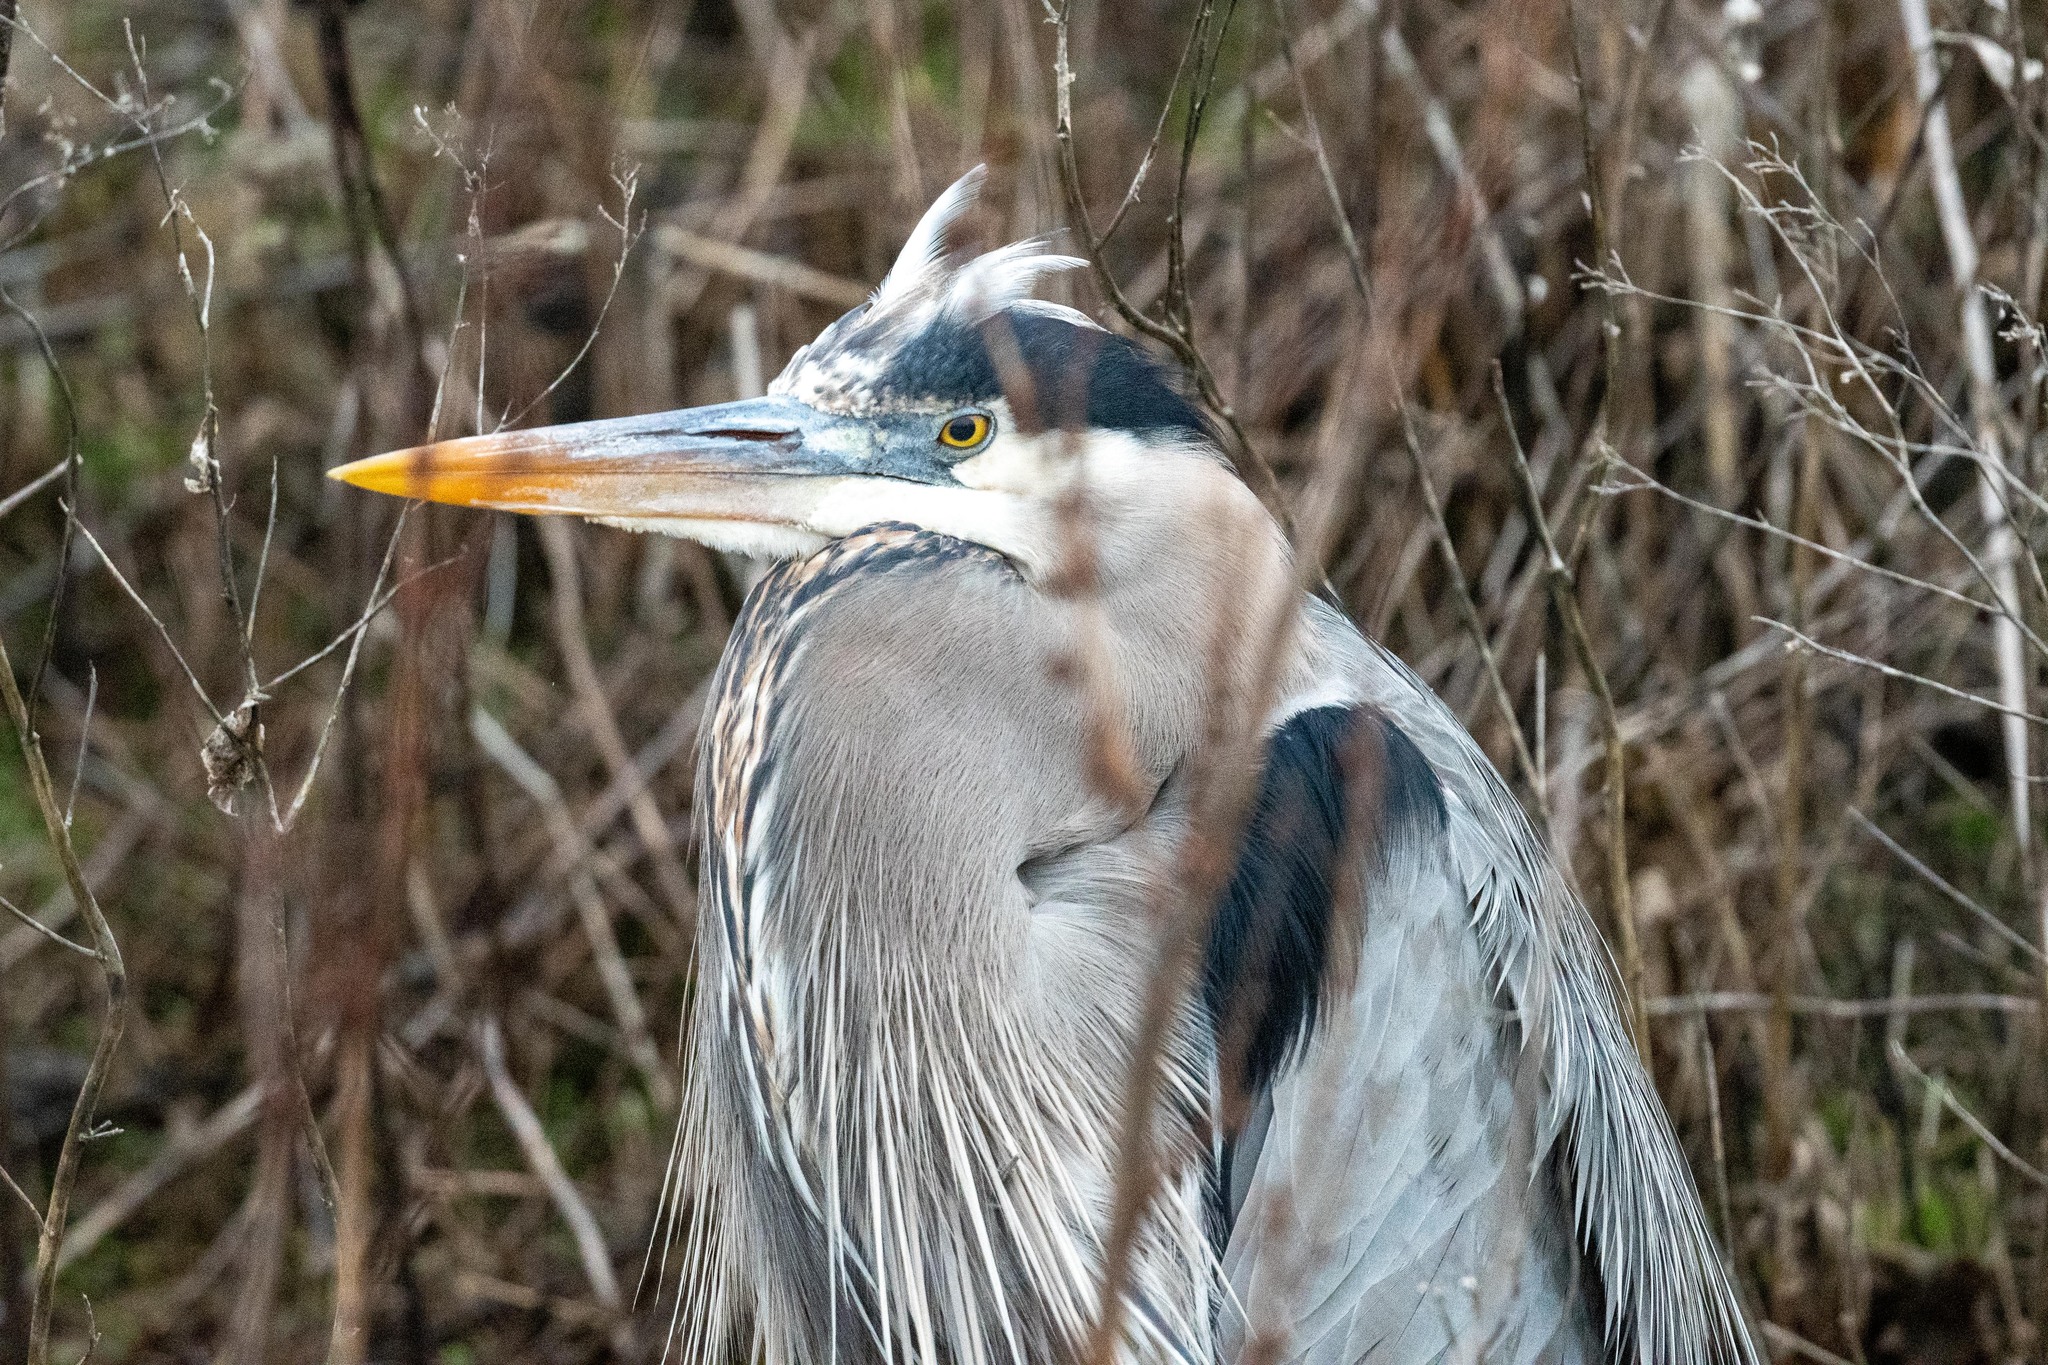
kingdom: Animalia
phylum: Chordata
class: Aves
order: Pelecaniformes
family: Ardeidae
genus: Ardea
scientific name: Ardea herodias
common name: Great blue heron
